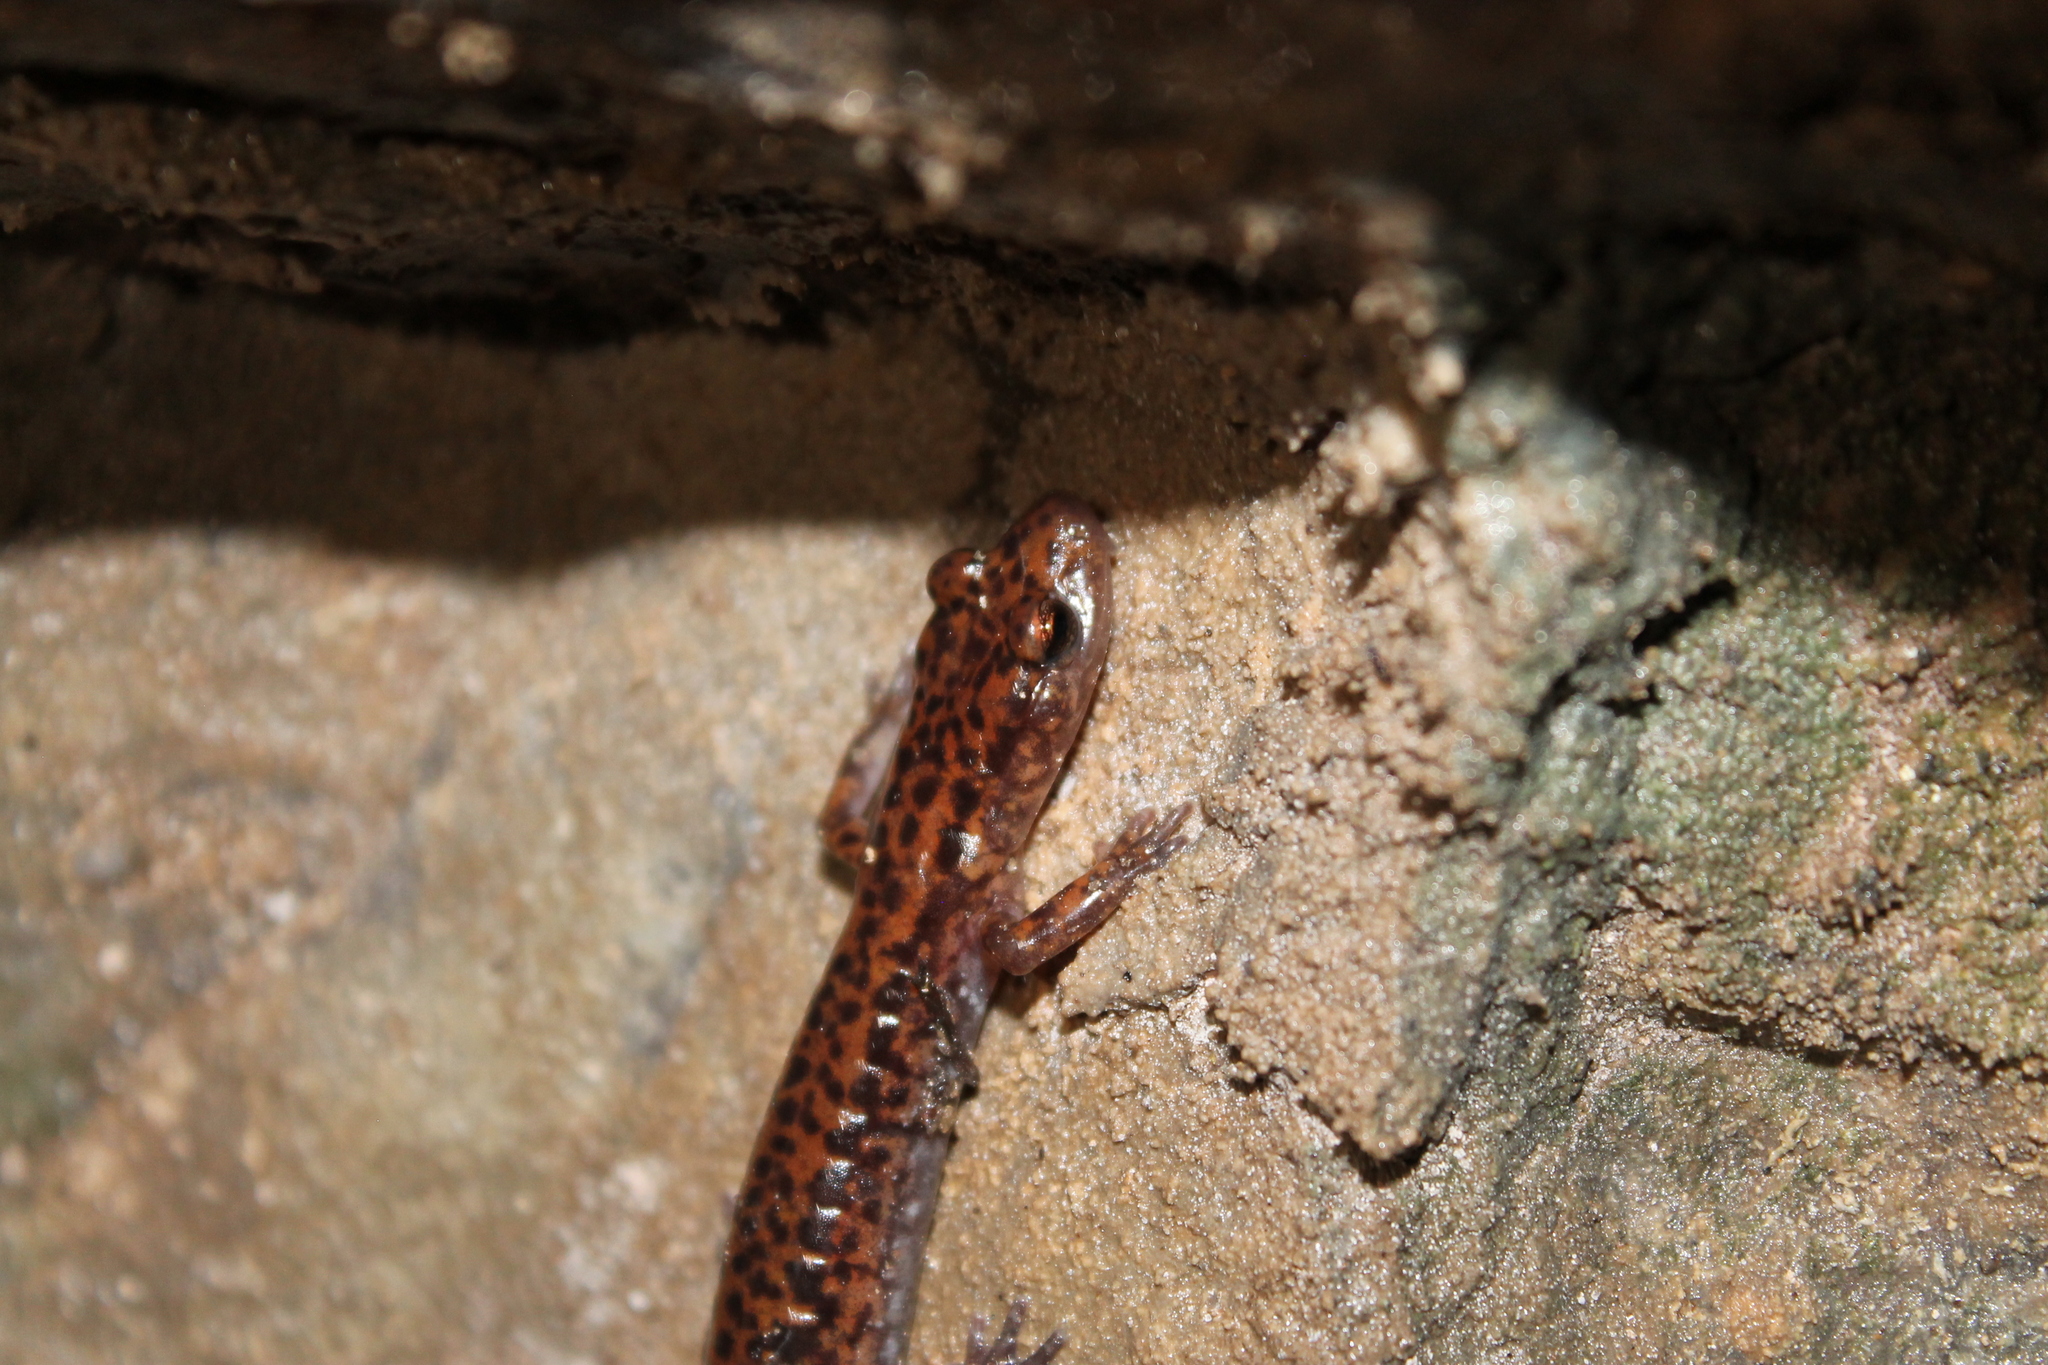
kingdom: Animalia
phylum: Chordata
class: Amphibia
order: Caudata
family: Plethodontidae
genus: Eurycea
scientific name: Eurycea lucifuga
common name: Cave salamander
